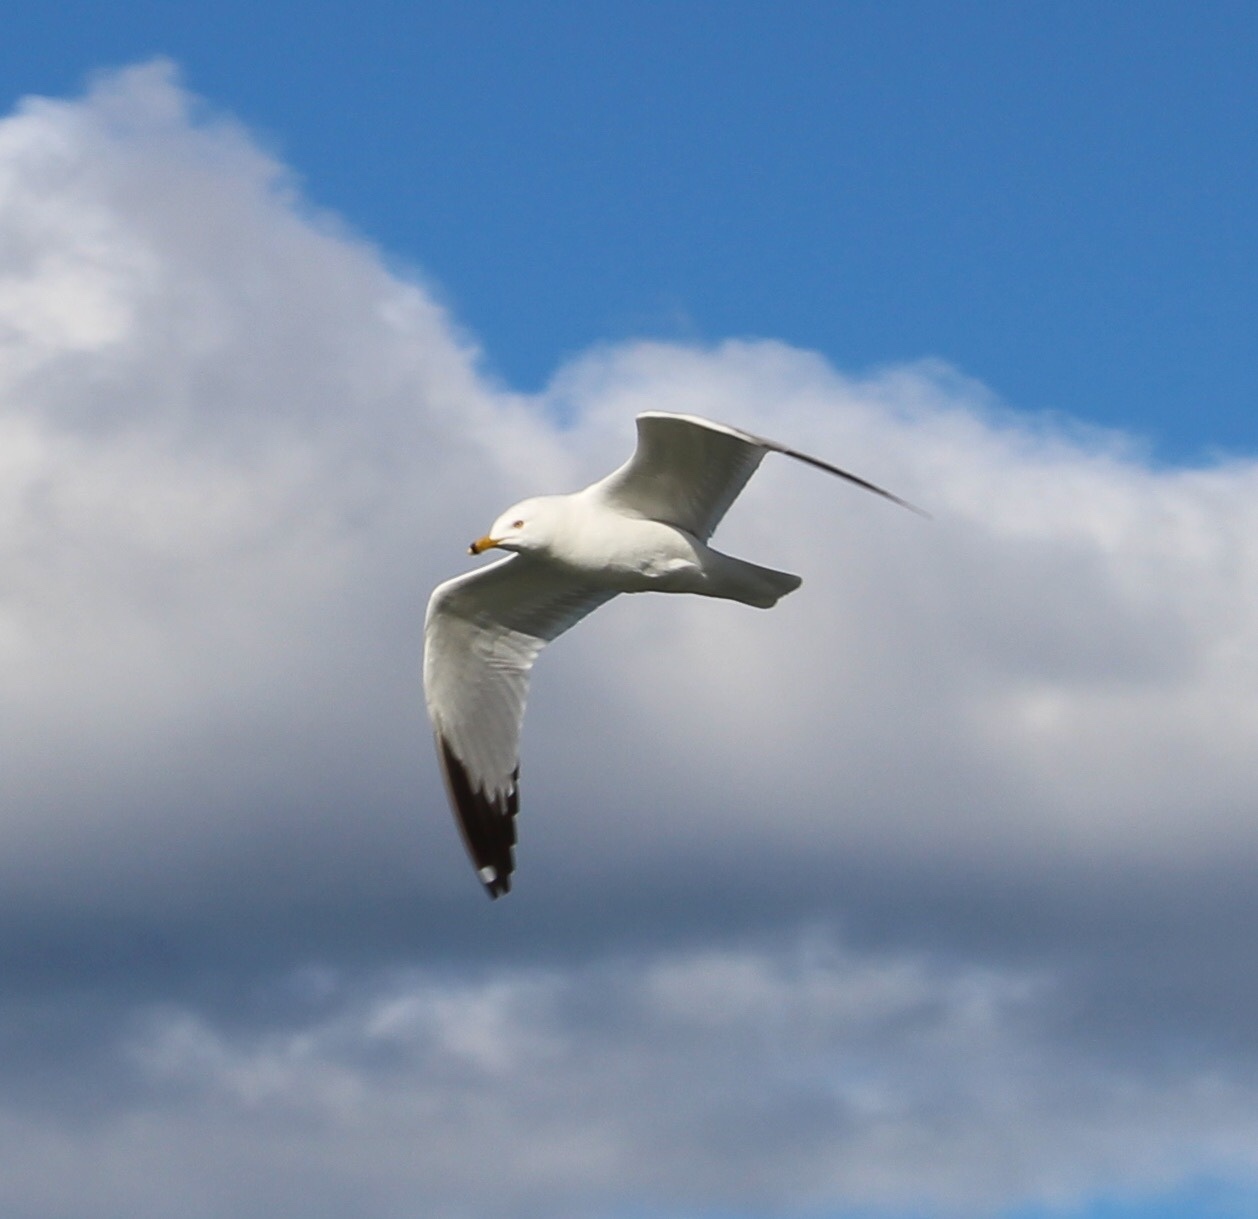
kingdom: Animalia
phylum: Chordata
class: Aves
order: Charadriiformes
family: Laridae
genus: Larus
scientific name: Larus delawarensis
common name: Ring-billed gull
